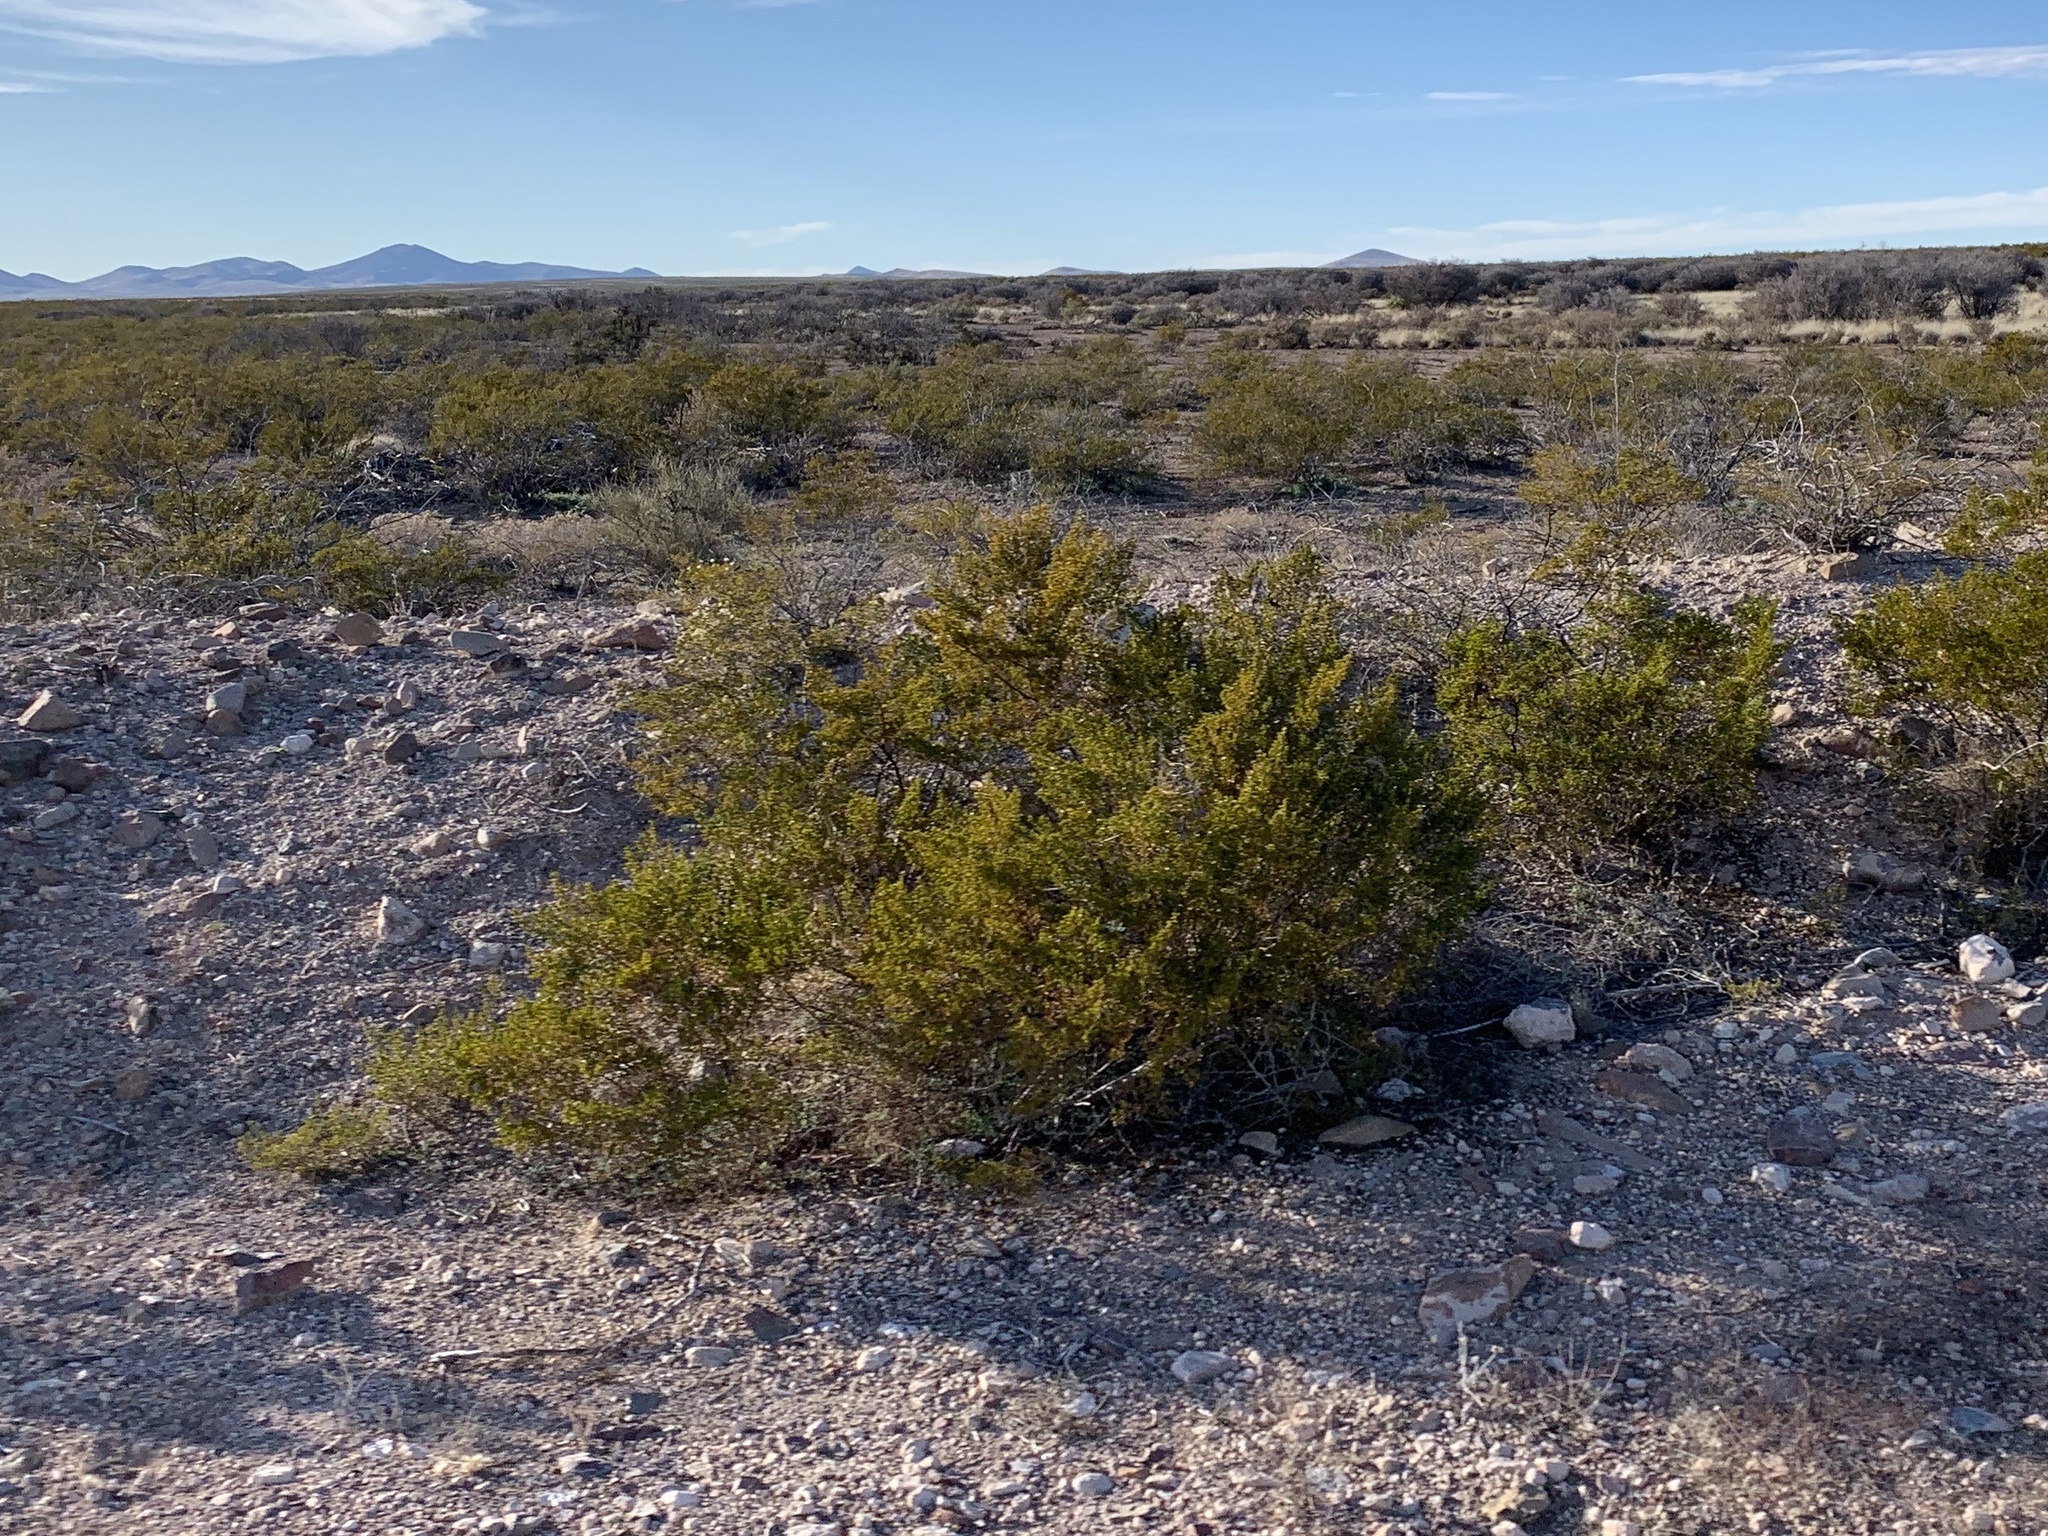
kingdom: Plantae
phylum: Tracheophyta
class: Magnoliopsida
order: Zygophyllales
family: Zygophyllaceae
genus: Larrea
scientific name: Larrea tridentata
